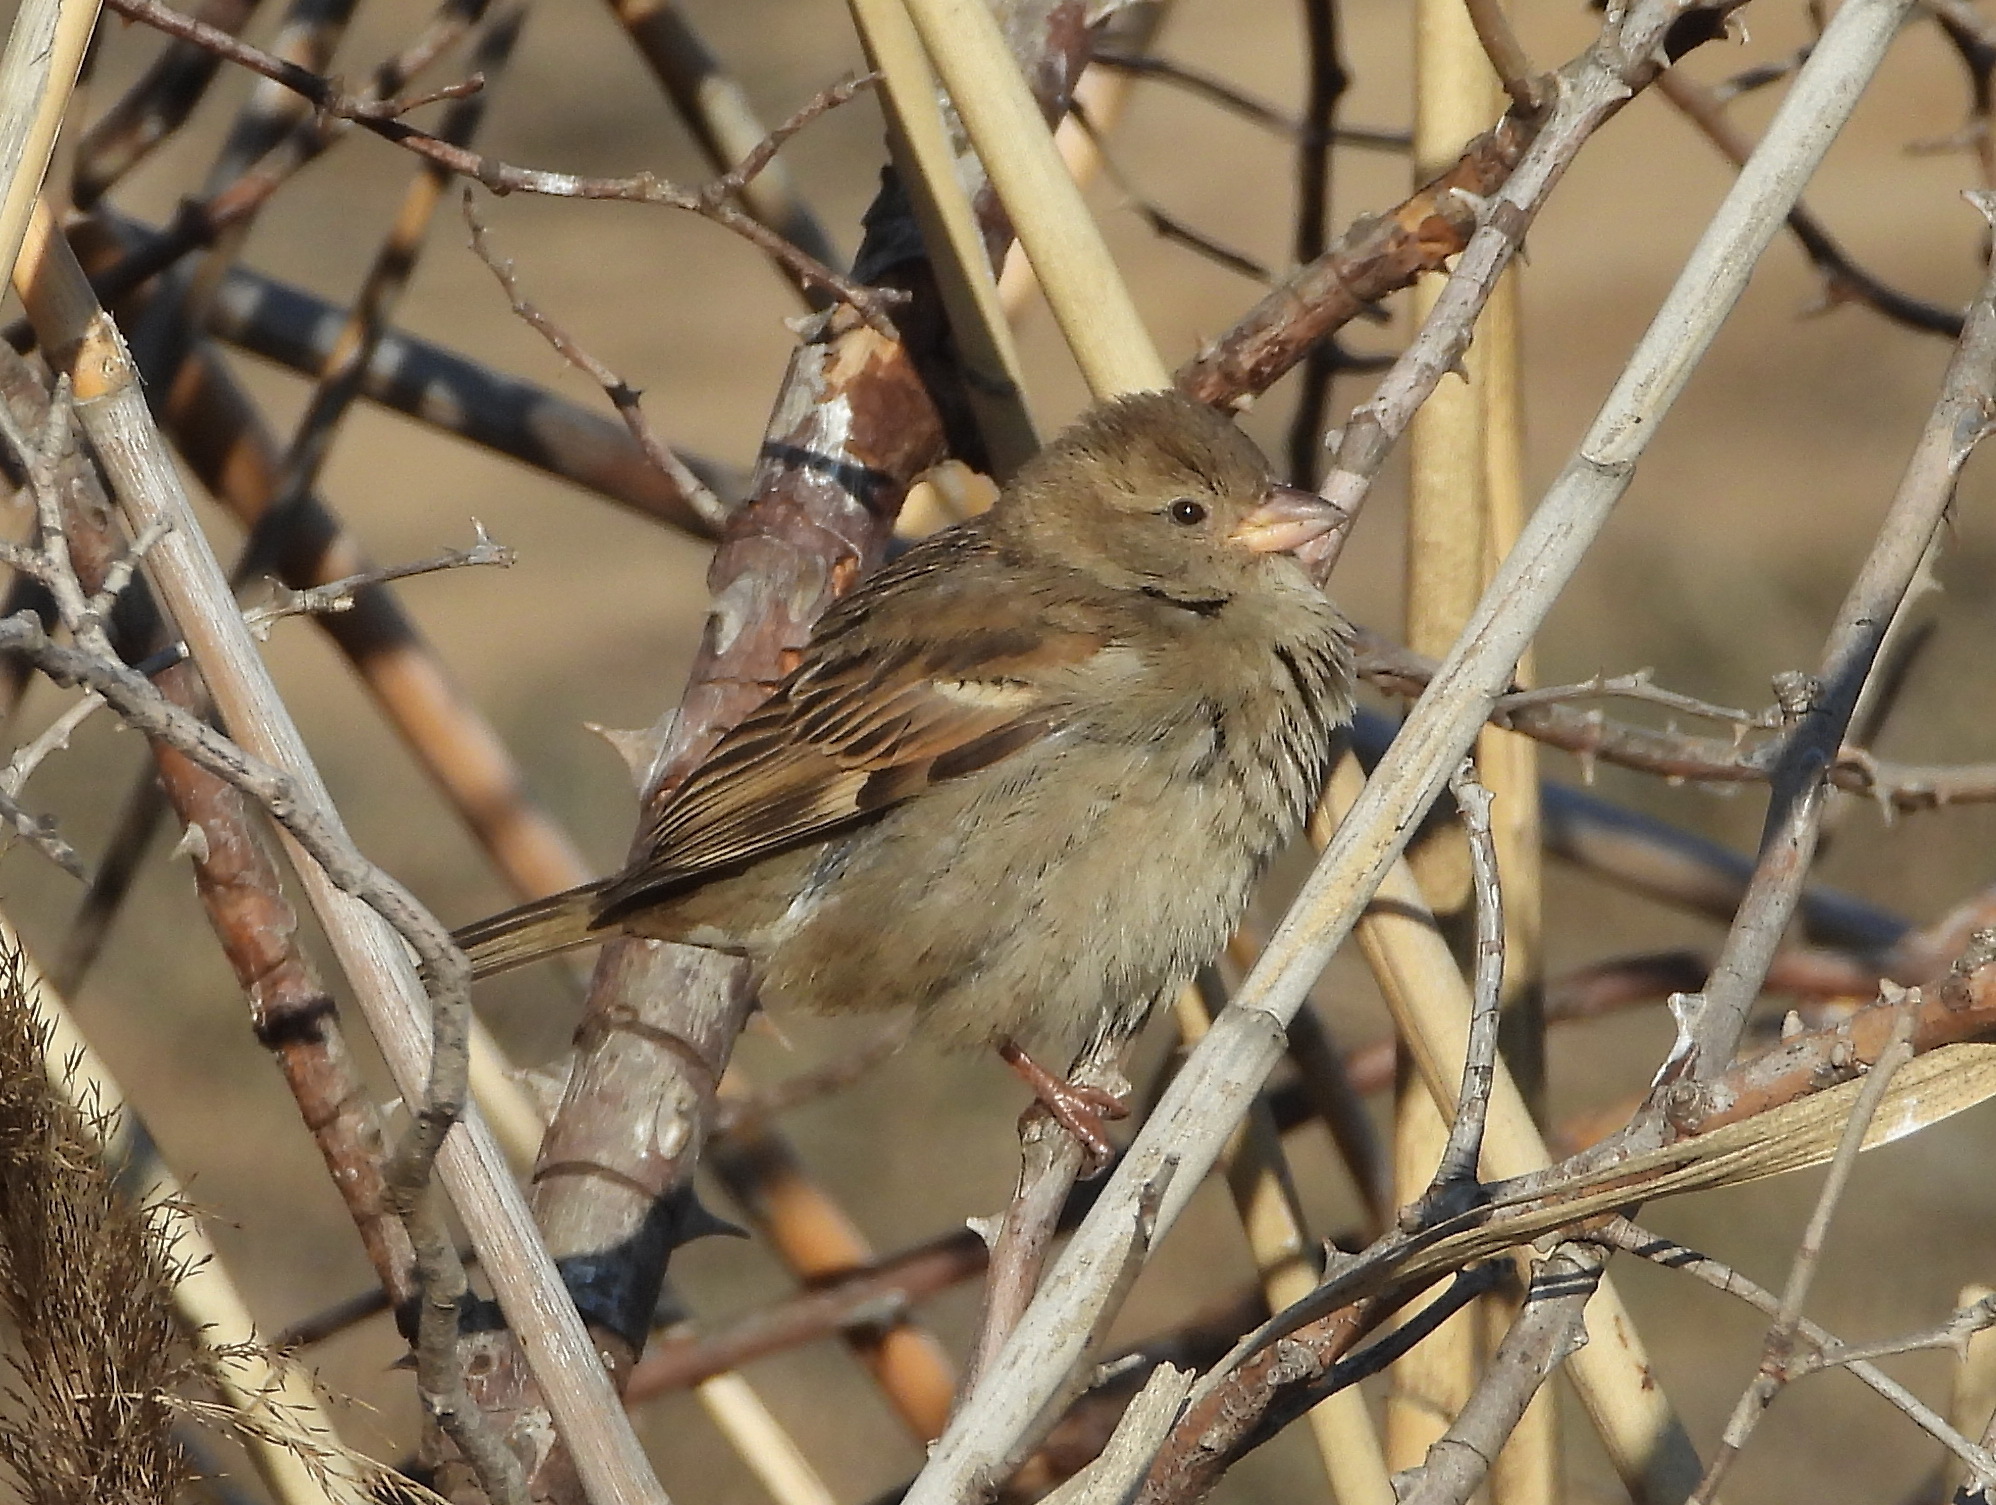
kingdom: Animalia
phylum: Chordata
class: Aves
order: Passeriformes
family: Passeridae
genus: Passer
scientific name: Passer domesticus
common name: House sparrow
